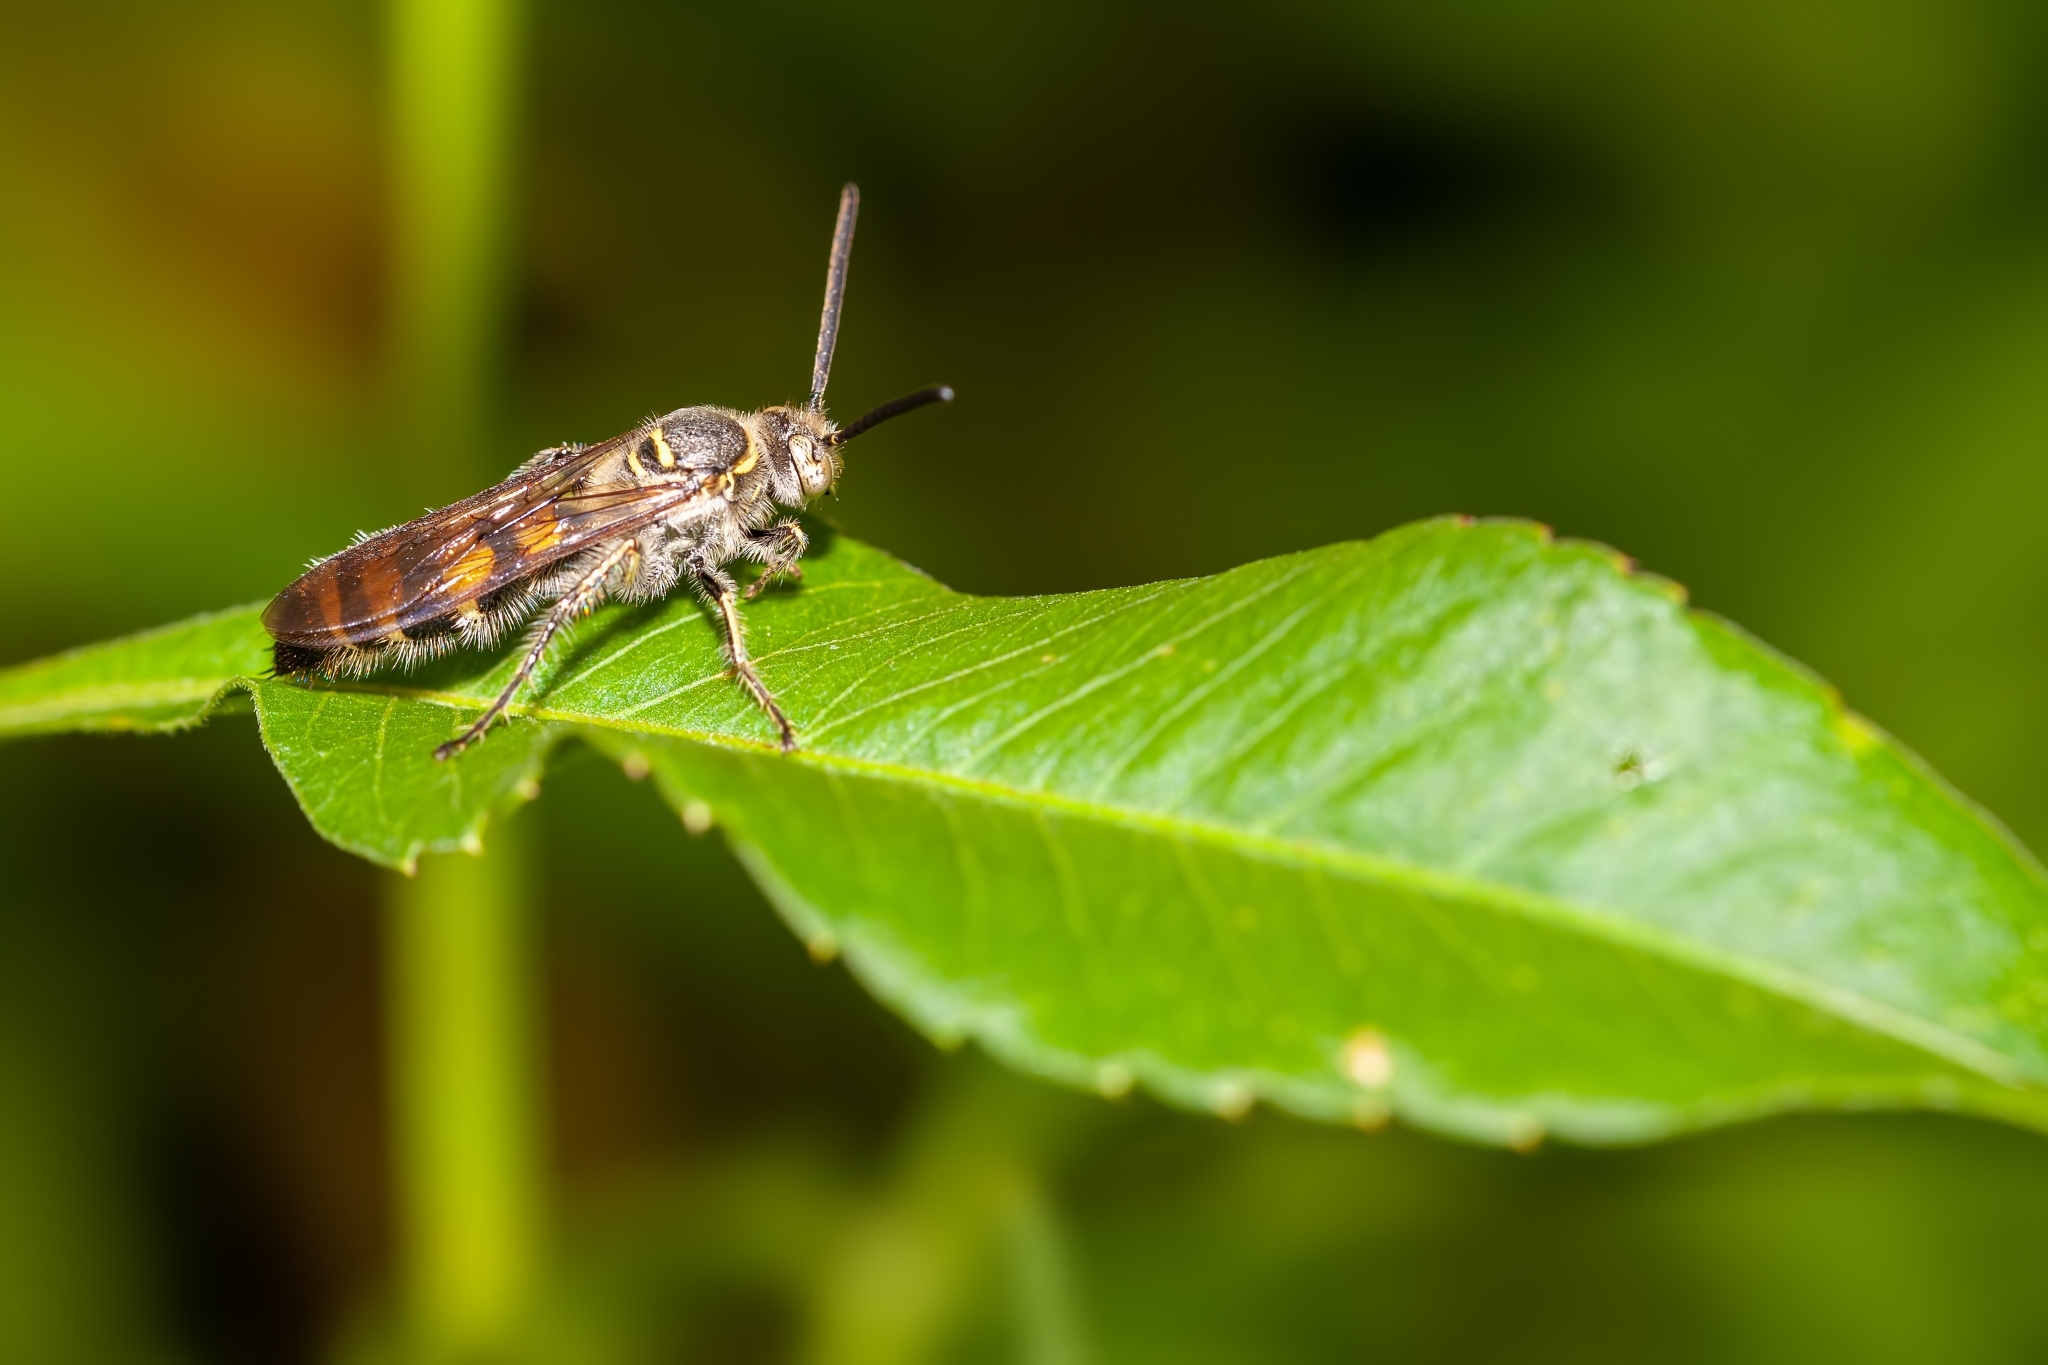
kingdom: Animalia
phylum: Arthropoda
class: Insecta
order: Hymenoptera
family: Scoliidae
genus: Dielis
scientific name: Dielis
